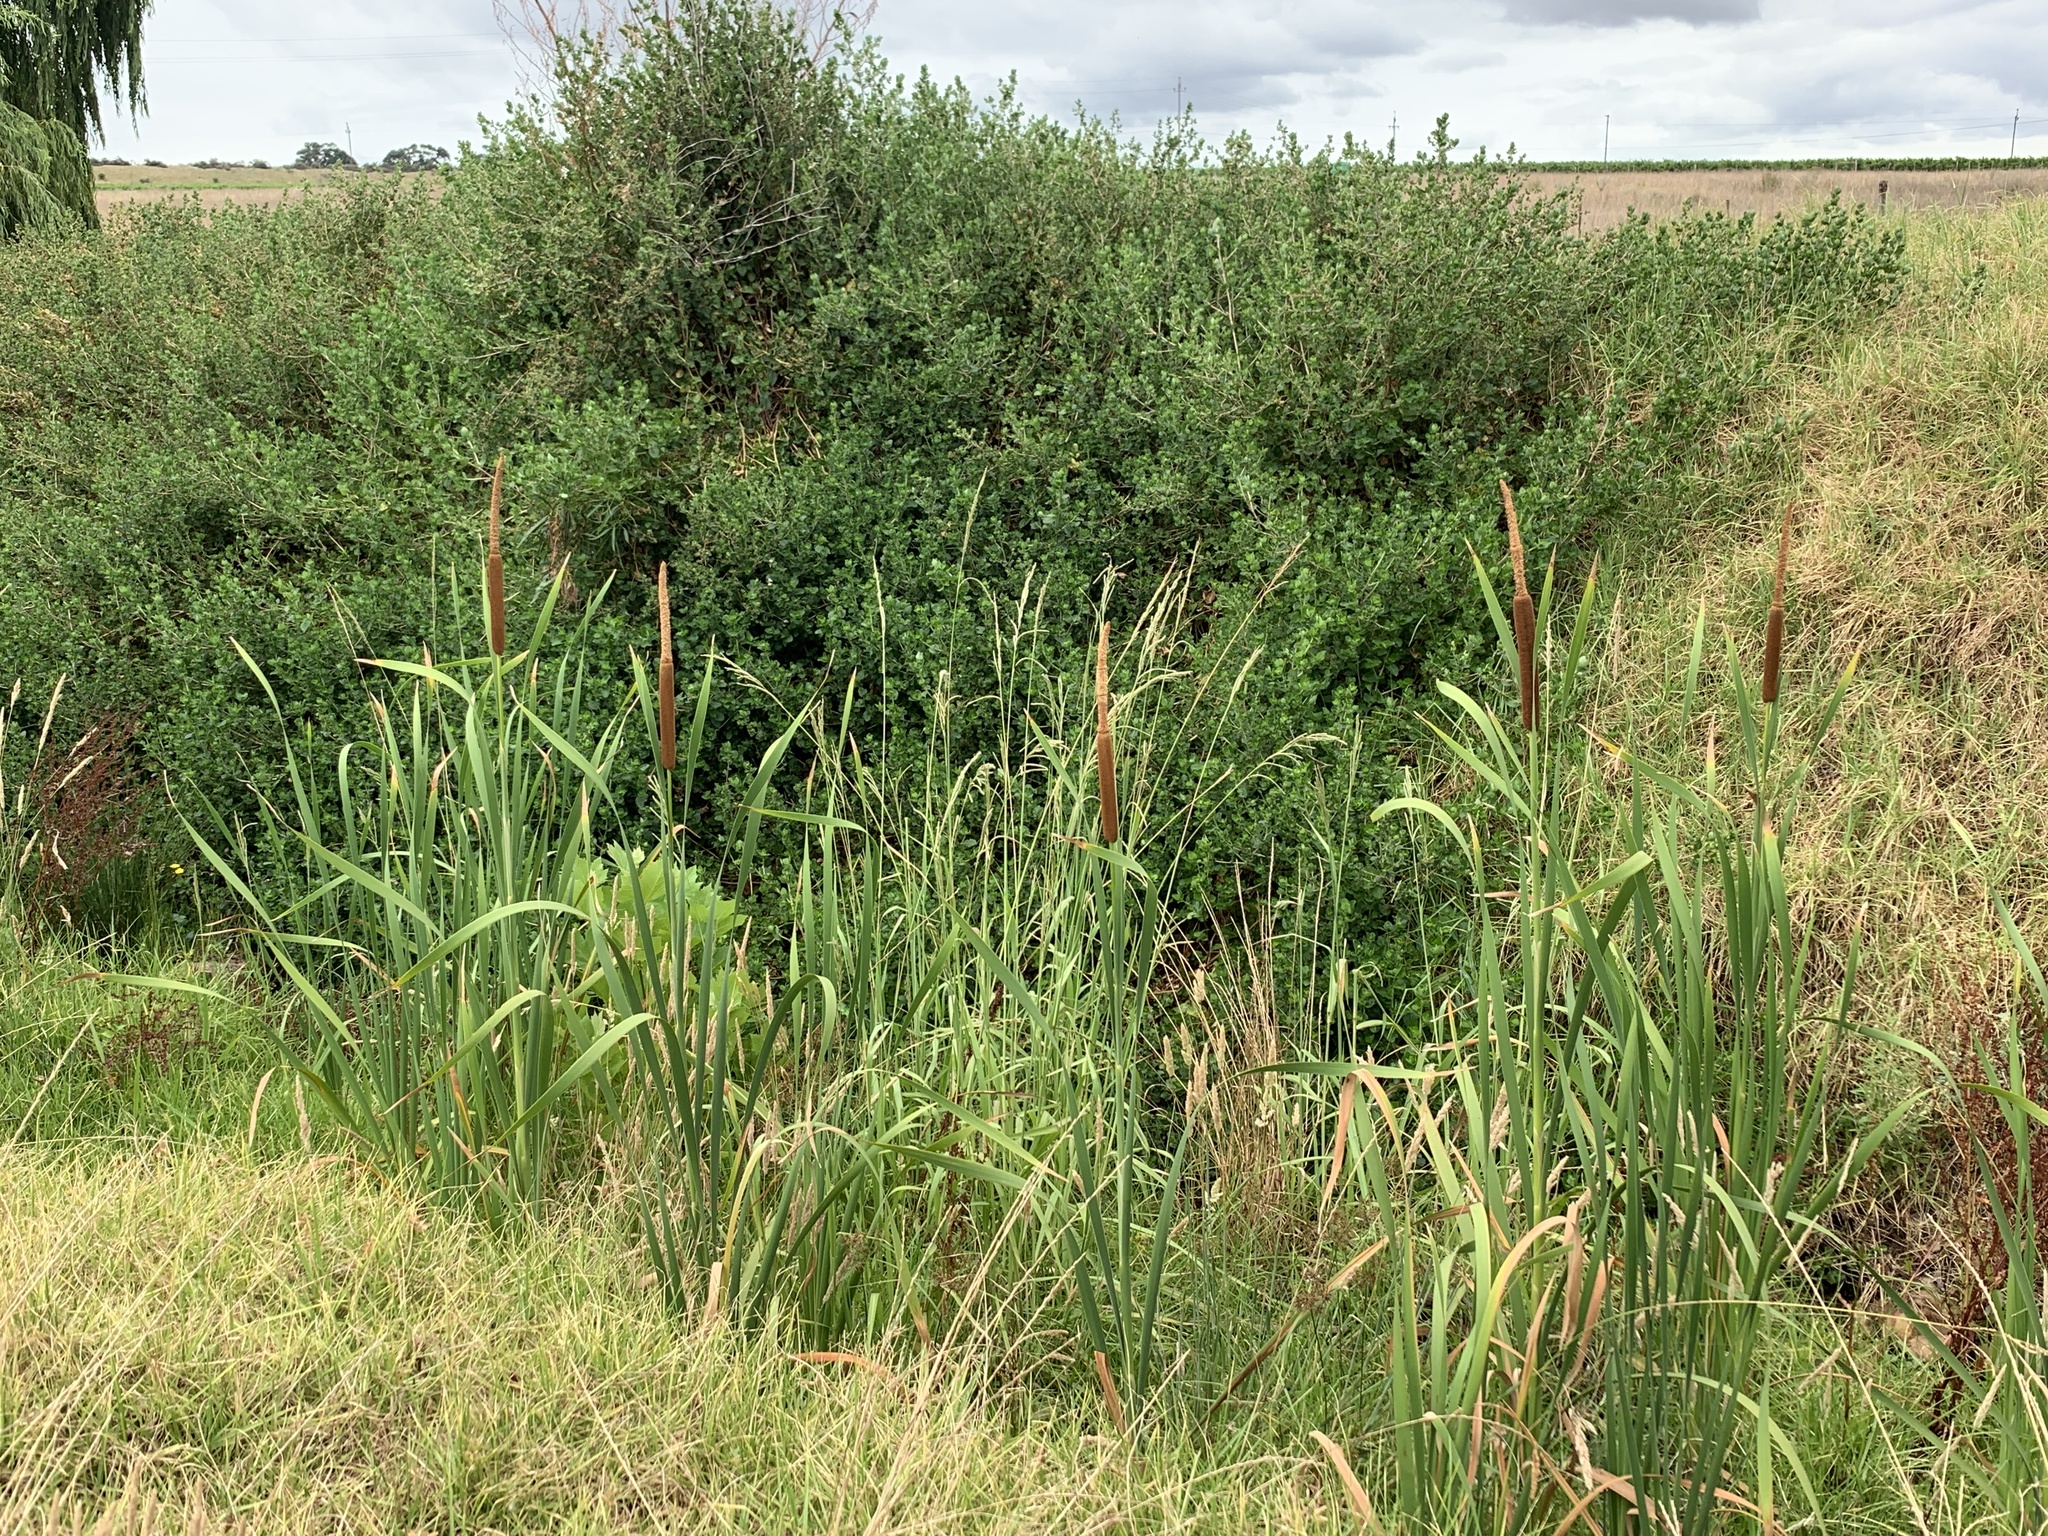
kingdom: Plantae
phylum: Tracheophyta
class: Liliopsida
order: Poales
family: Typhaceae
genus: Typha
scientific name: Typha capensis
